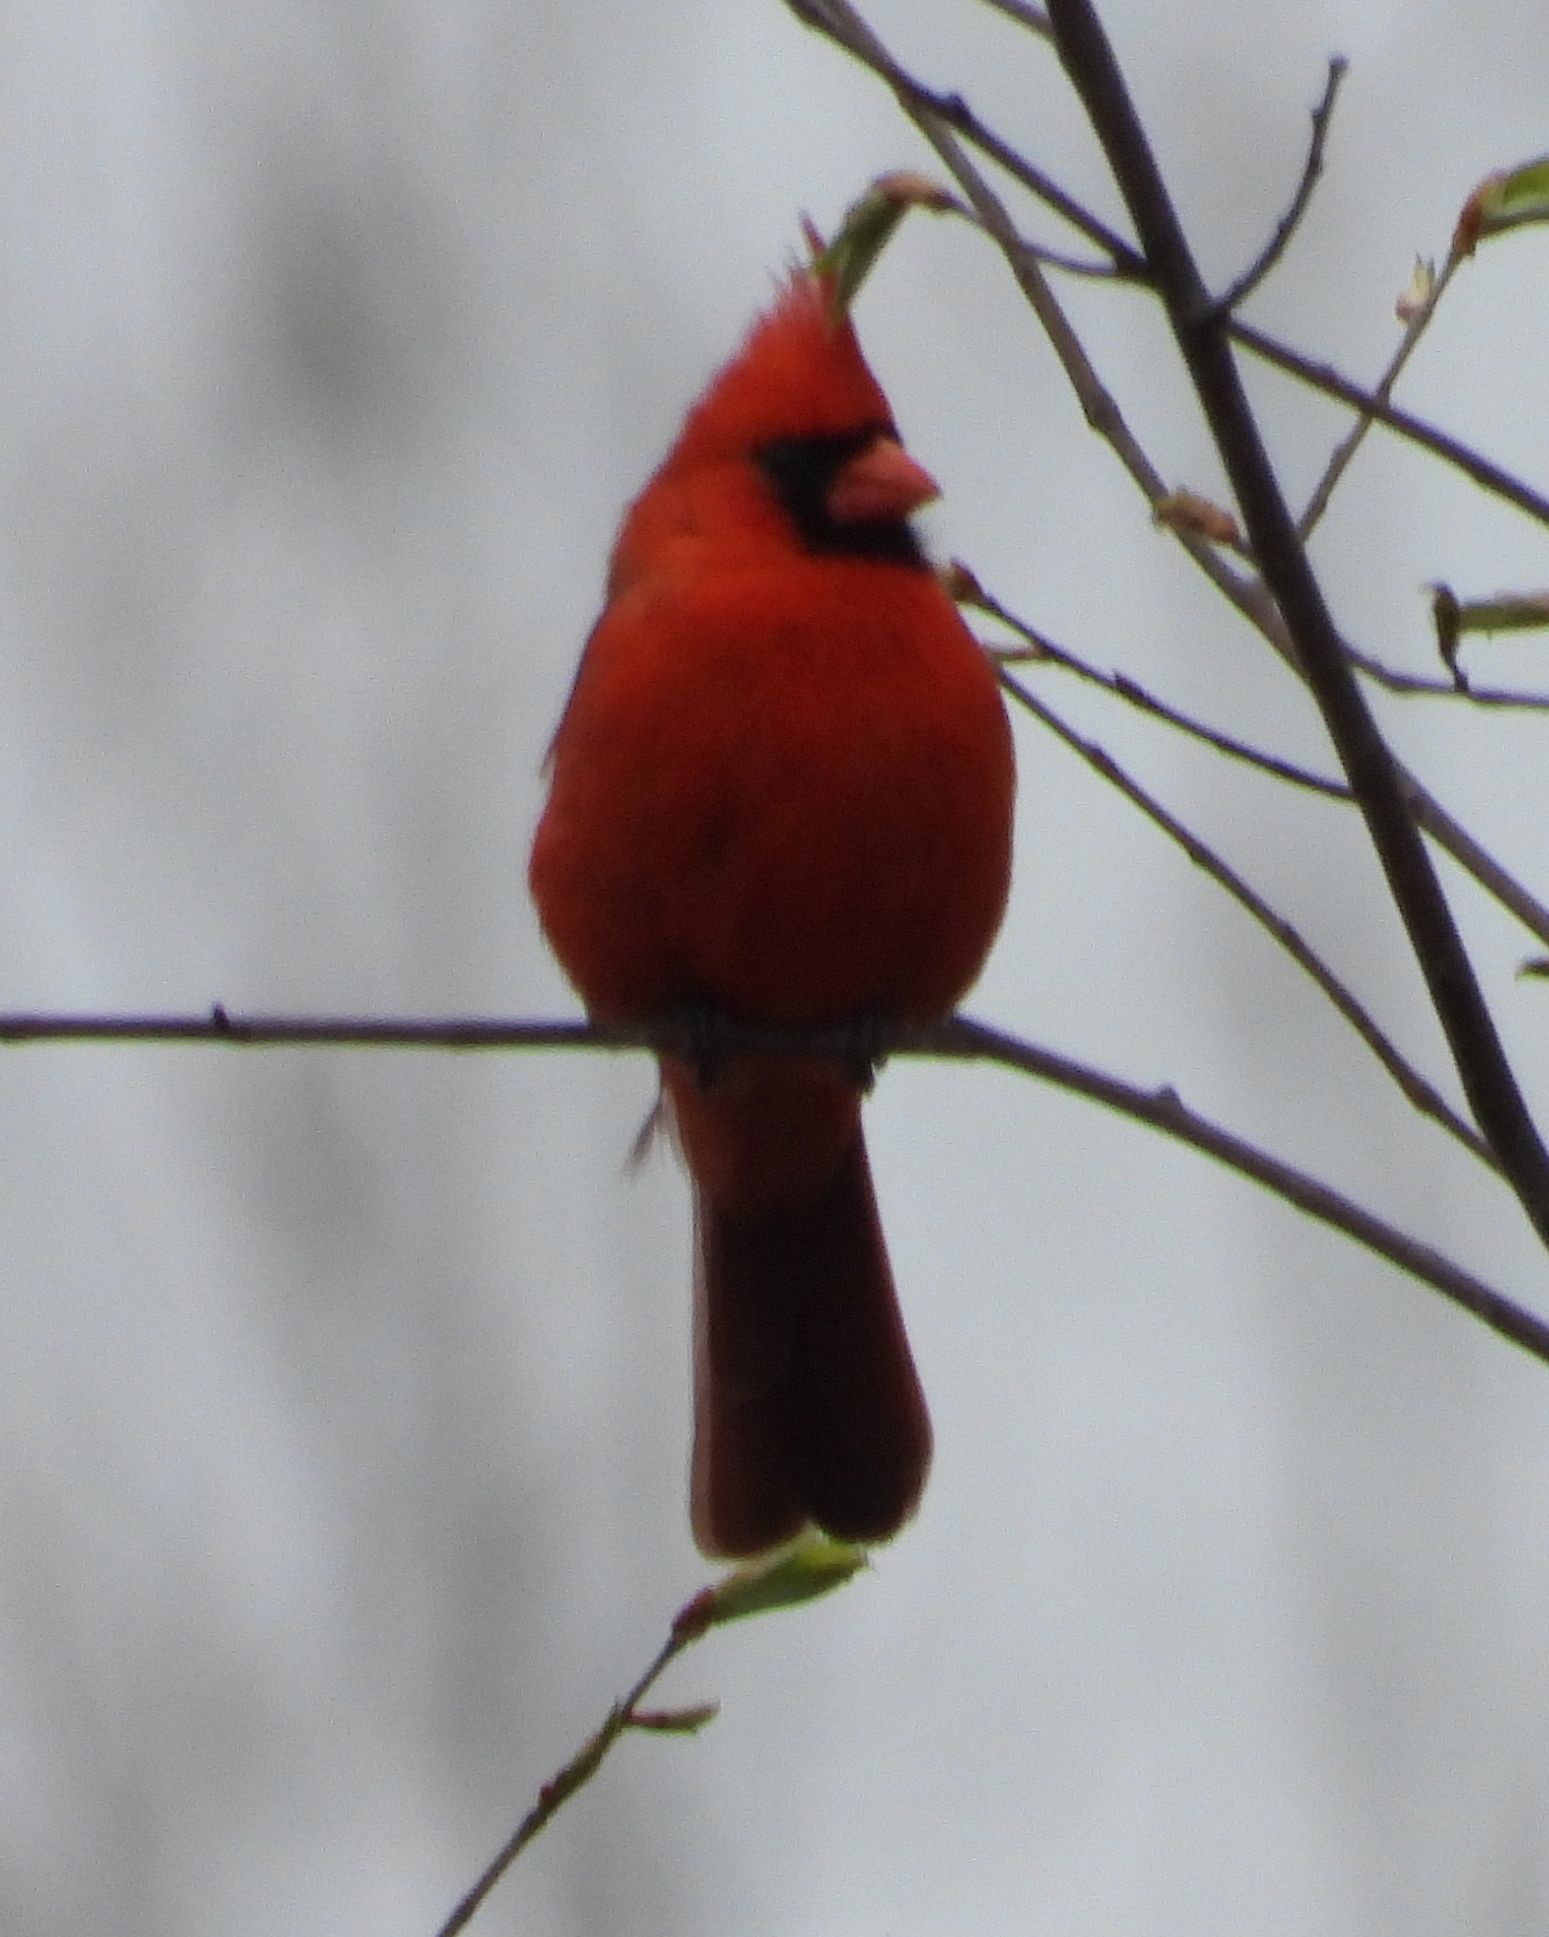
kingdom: Animalia
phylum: Chordata
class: Aves
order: Passeriformes
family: Cardinalidae
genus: Cardinalis
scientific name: Cardinalis cardinalis
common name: Northern cardinal
